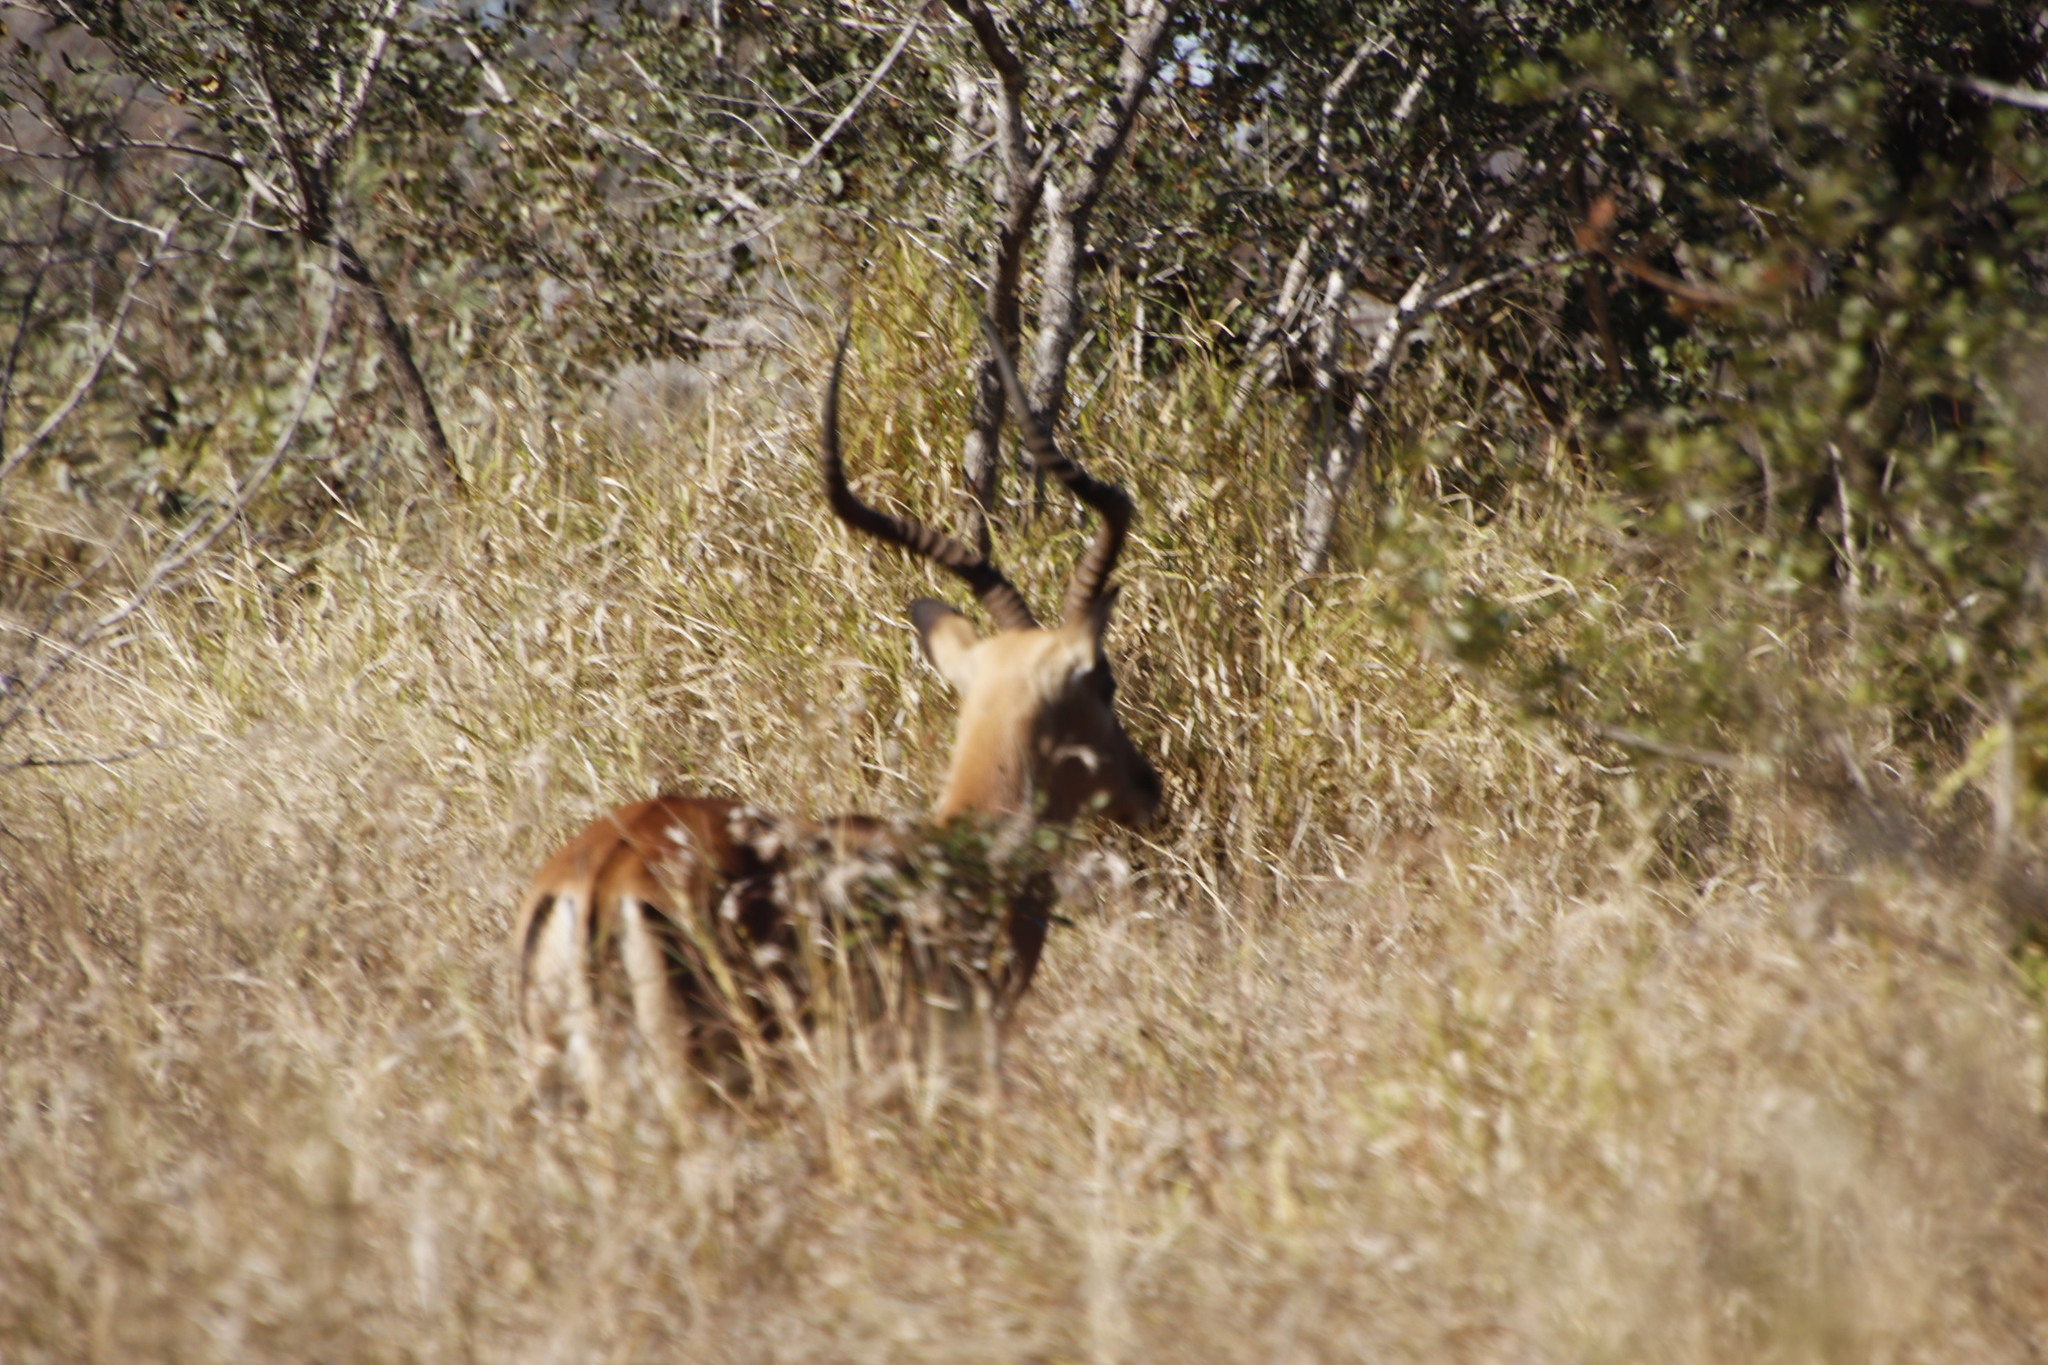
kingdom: Animalia
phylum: Chordata
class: Mammalia
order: Artiodactyla
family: Bovidae
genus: Aepyceros
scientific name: Aepyceros melampus
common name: Impala
